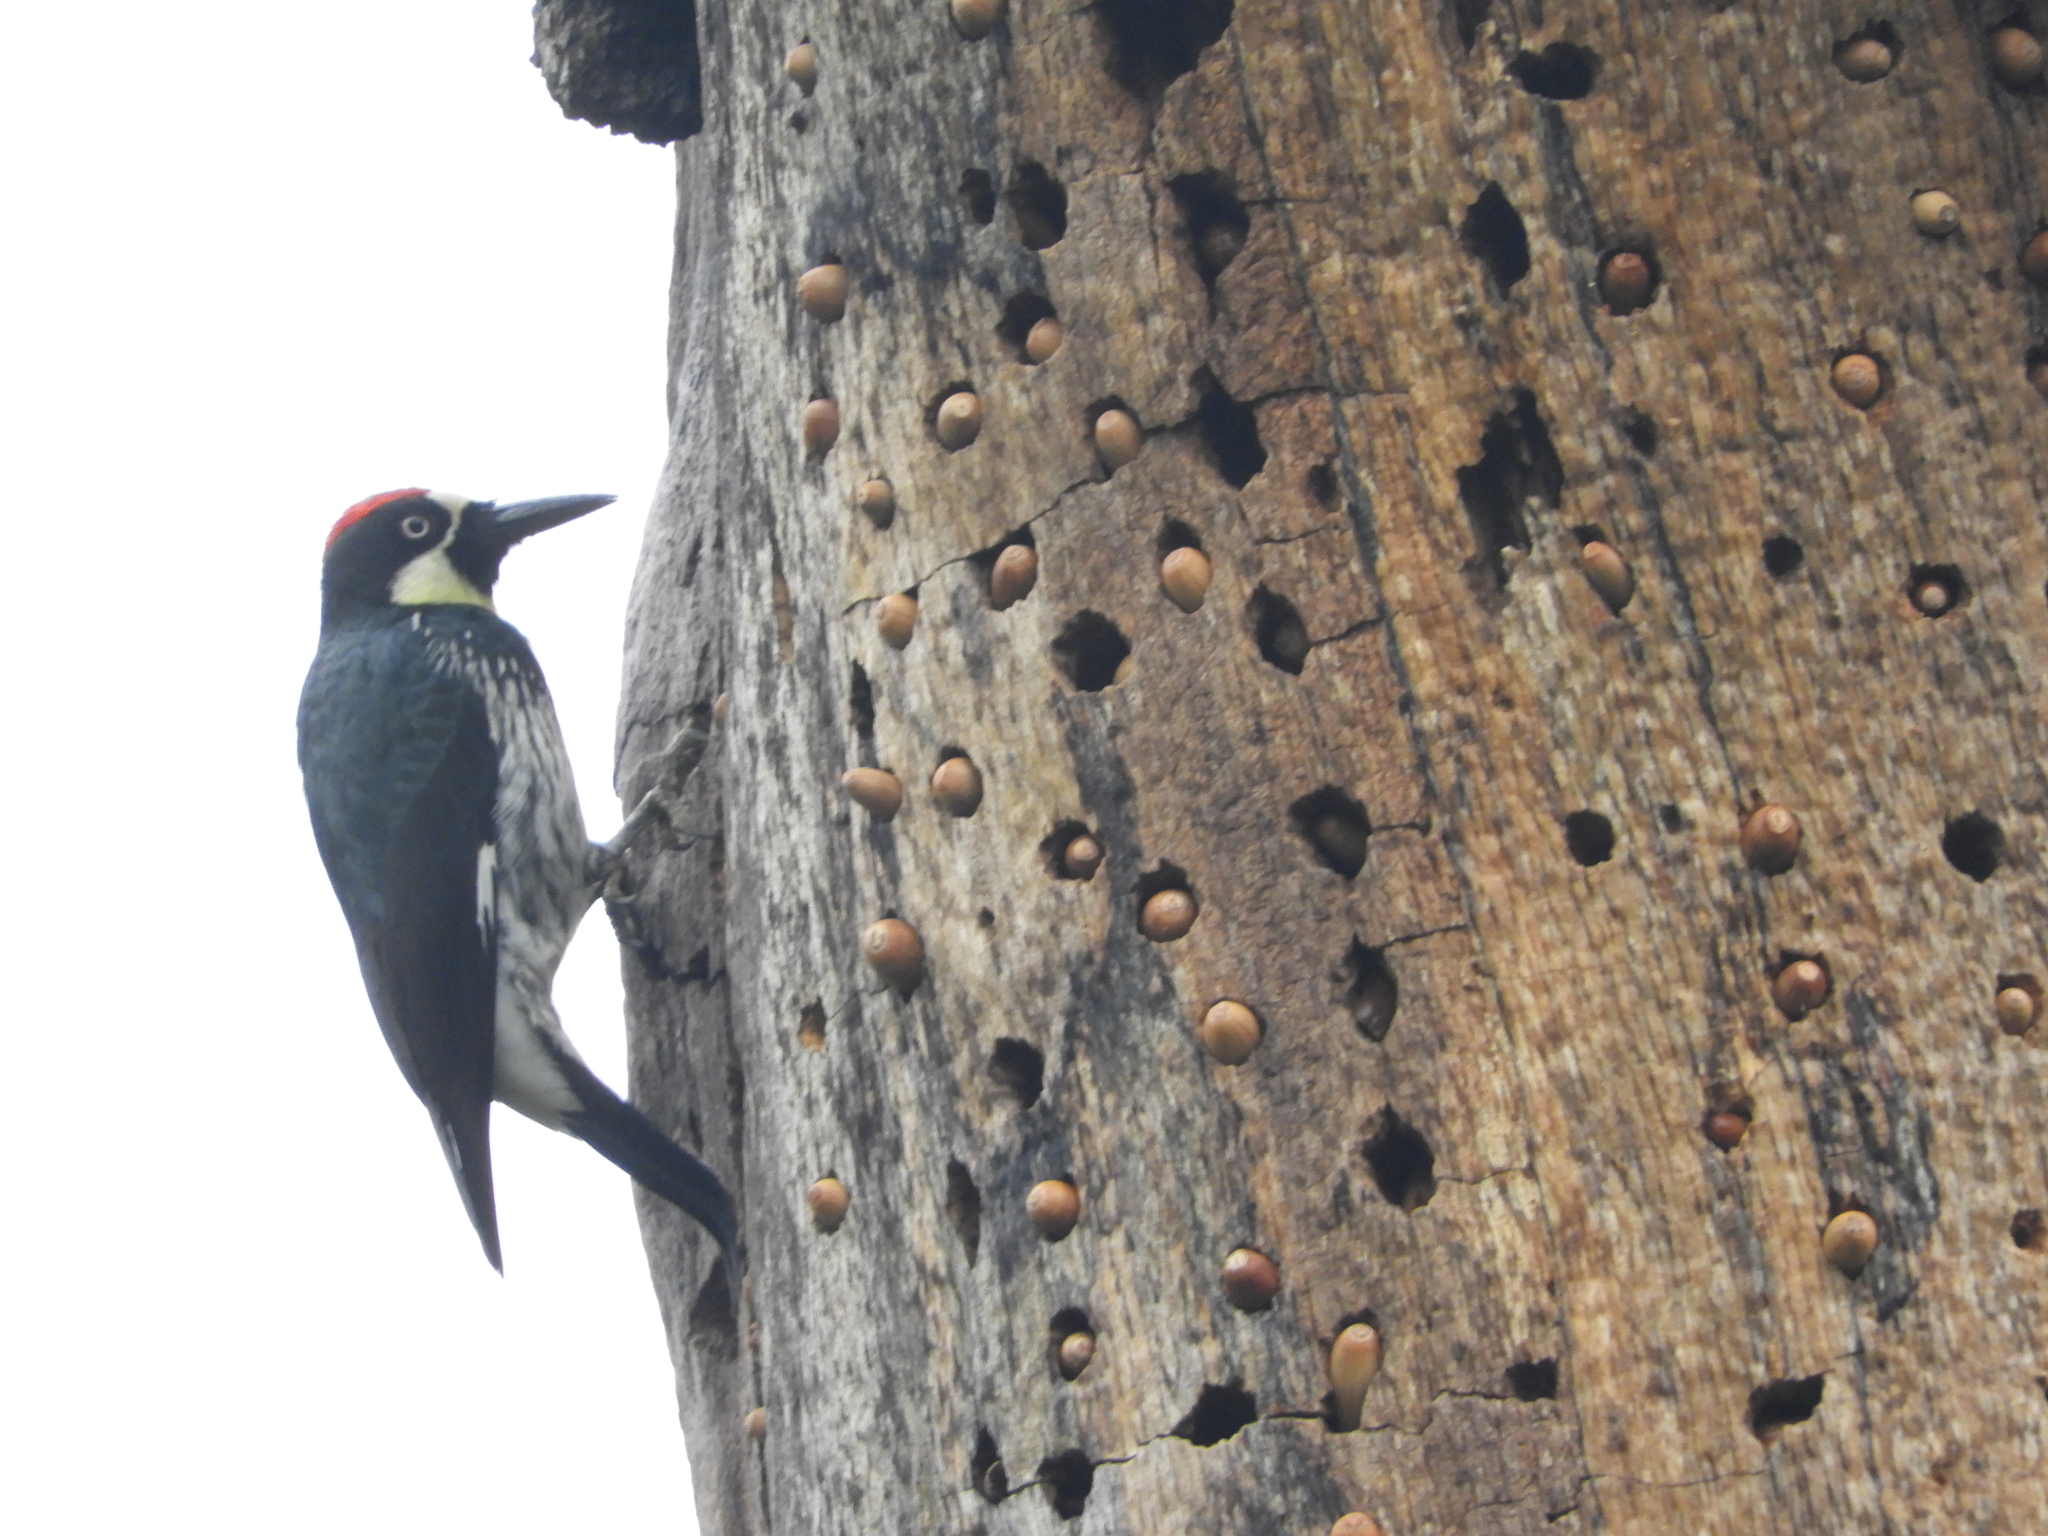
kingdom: Animalia
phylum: Chordata
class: Aves
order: Piciformes
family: Picidae
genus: Melanerpes
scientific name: Melanerpes formicivorus
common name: Acorn woodpecker
